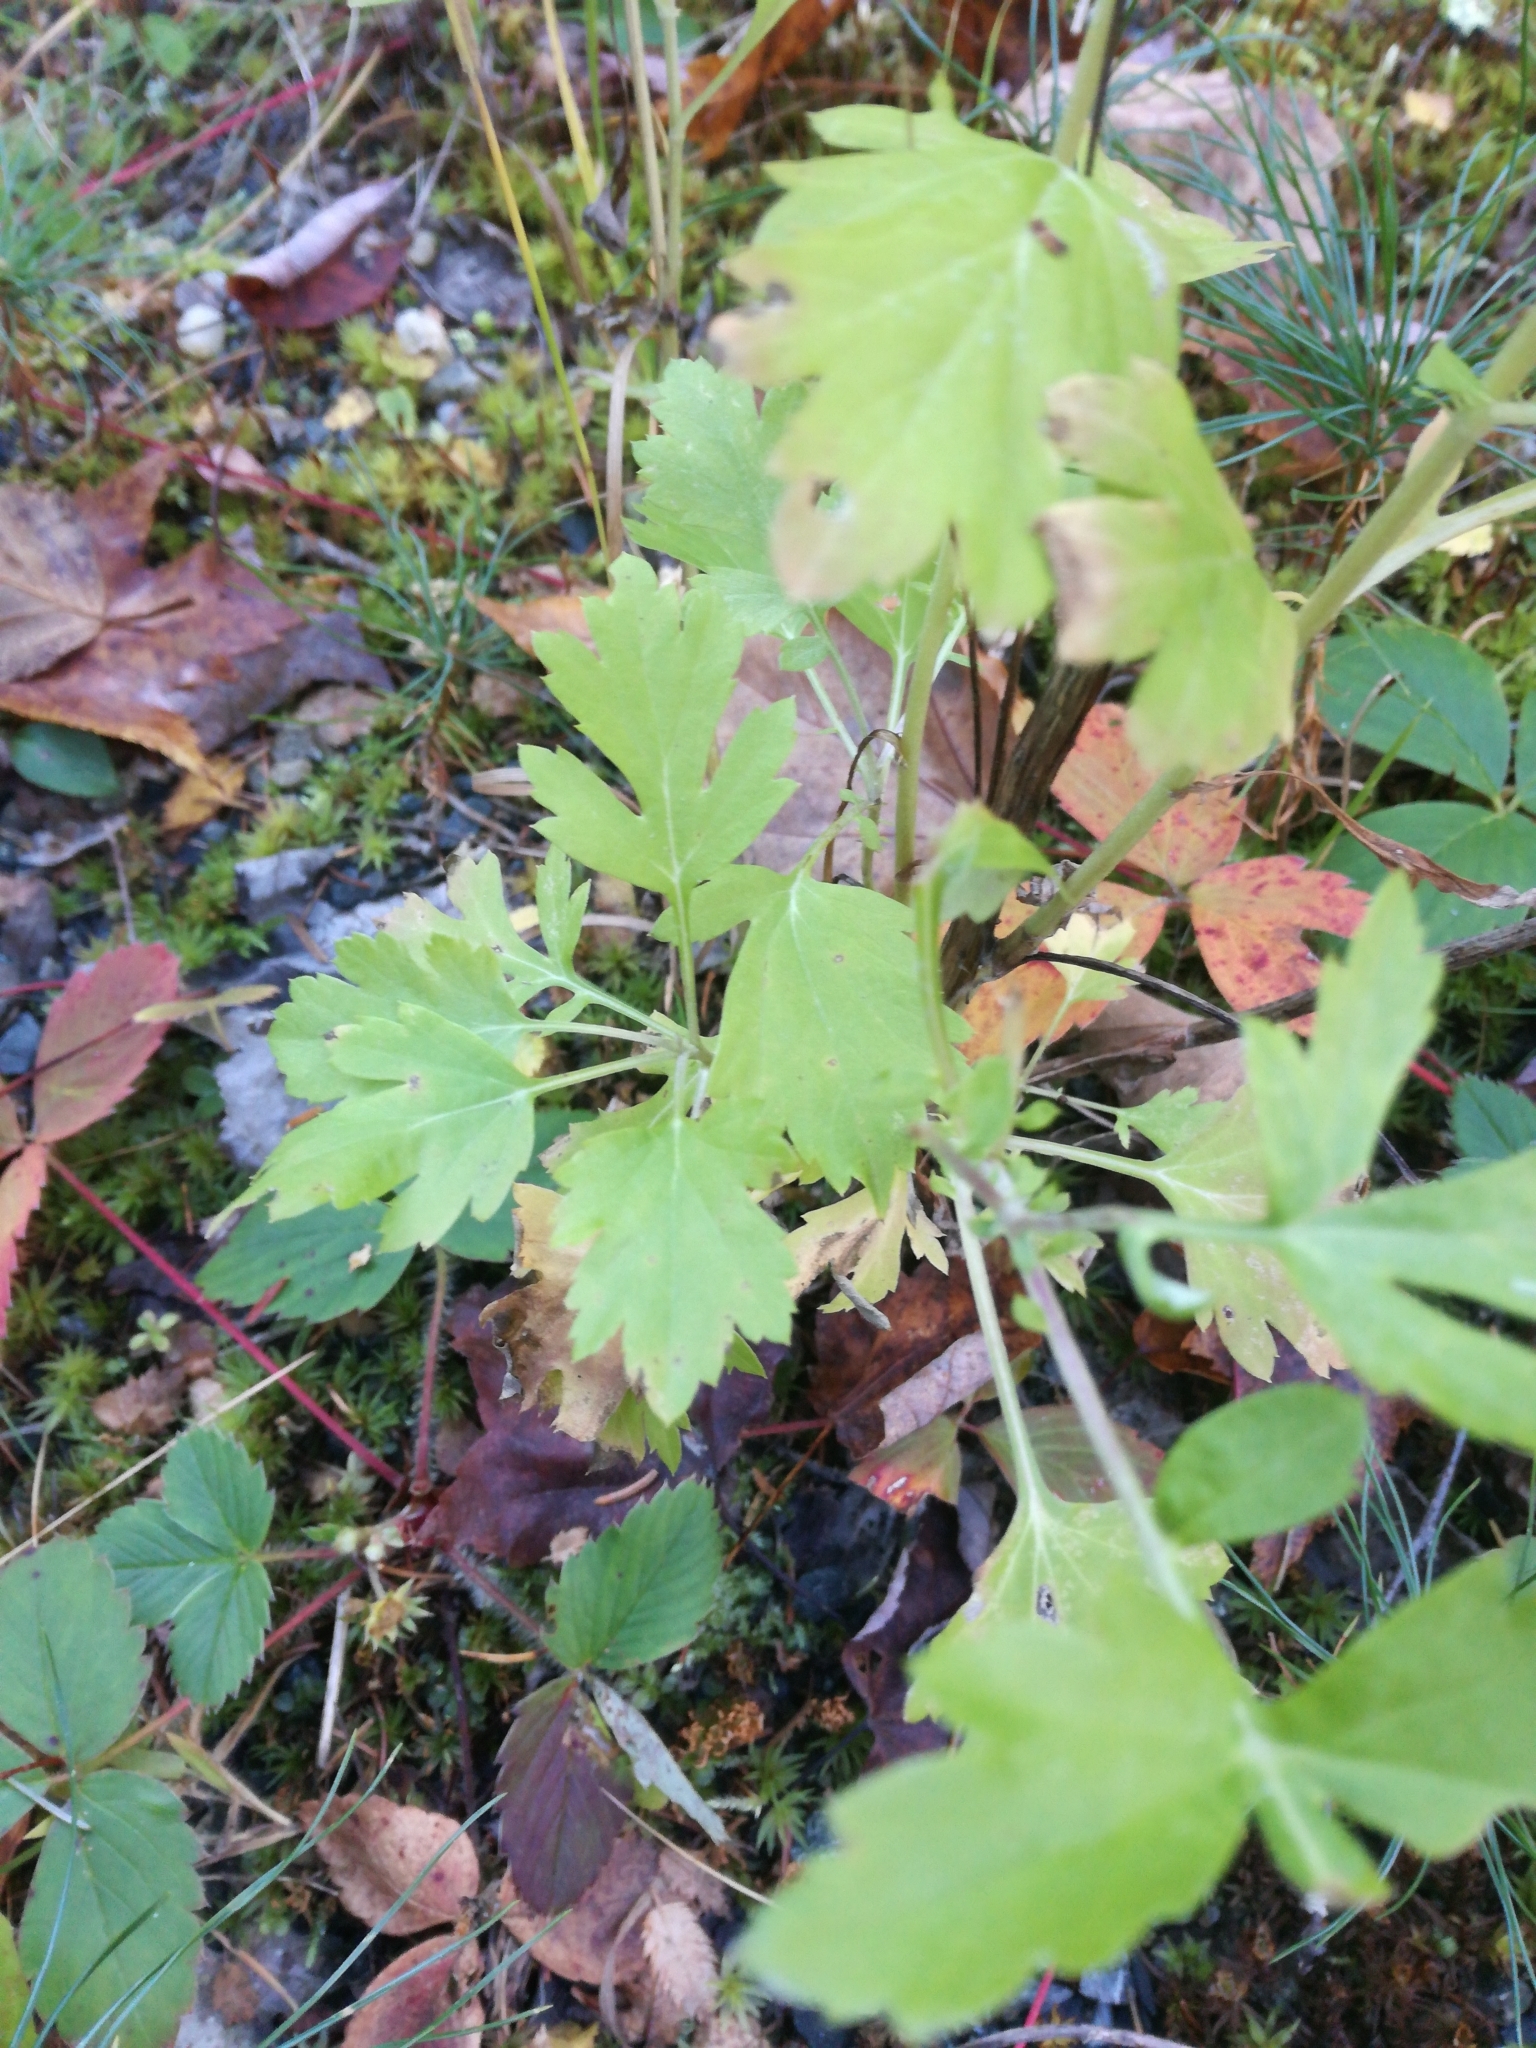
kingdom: Plantae
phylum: Tracheophyta
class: Magnoliopsida
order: Asterales
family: Asteraceae
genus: Artemisia
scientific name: Artemisia vulgaris
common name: Mugwort
